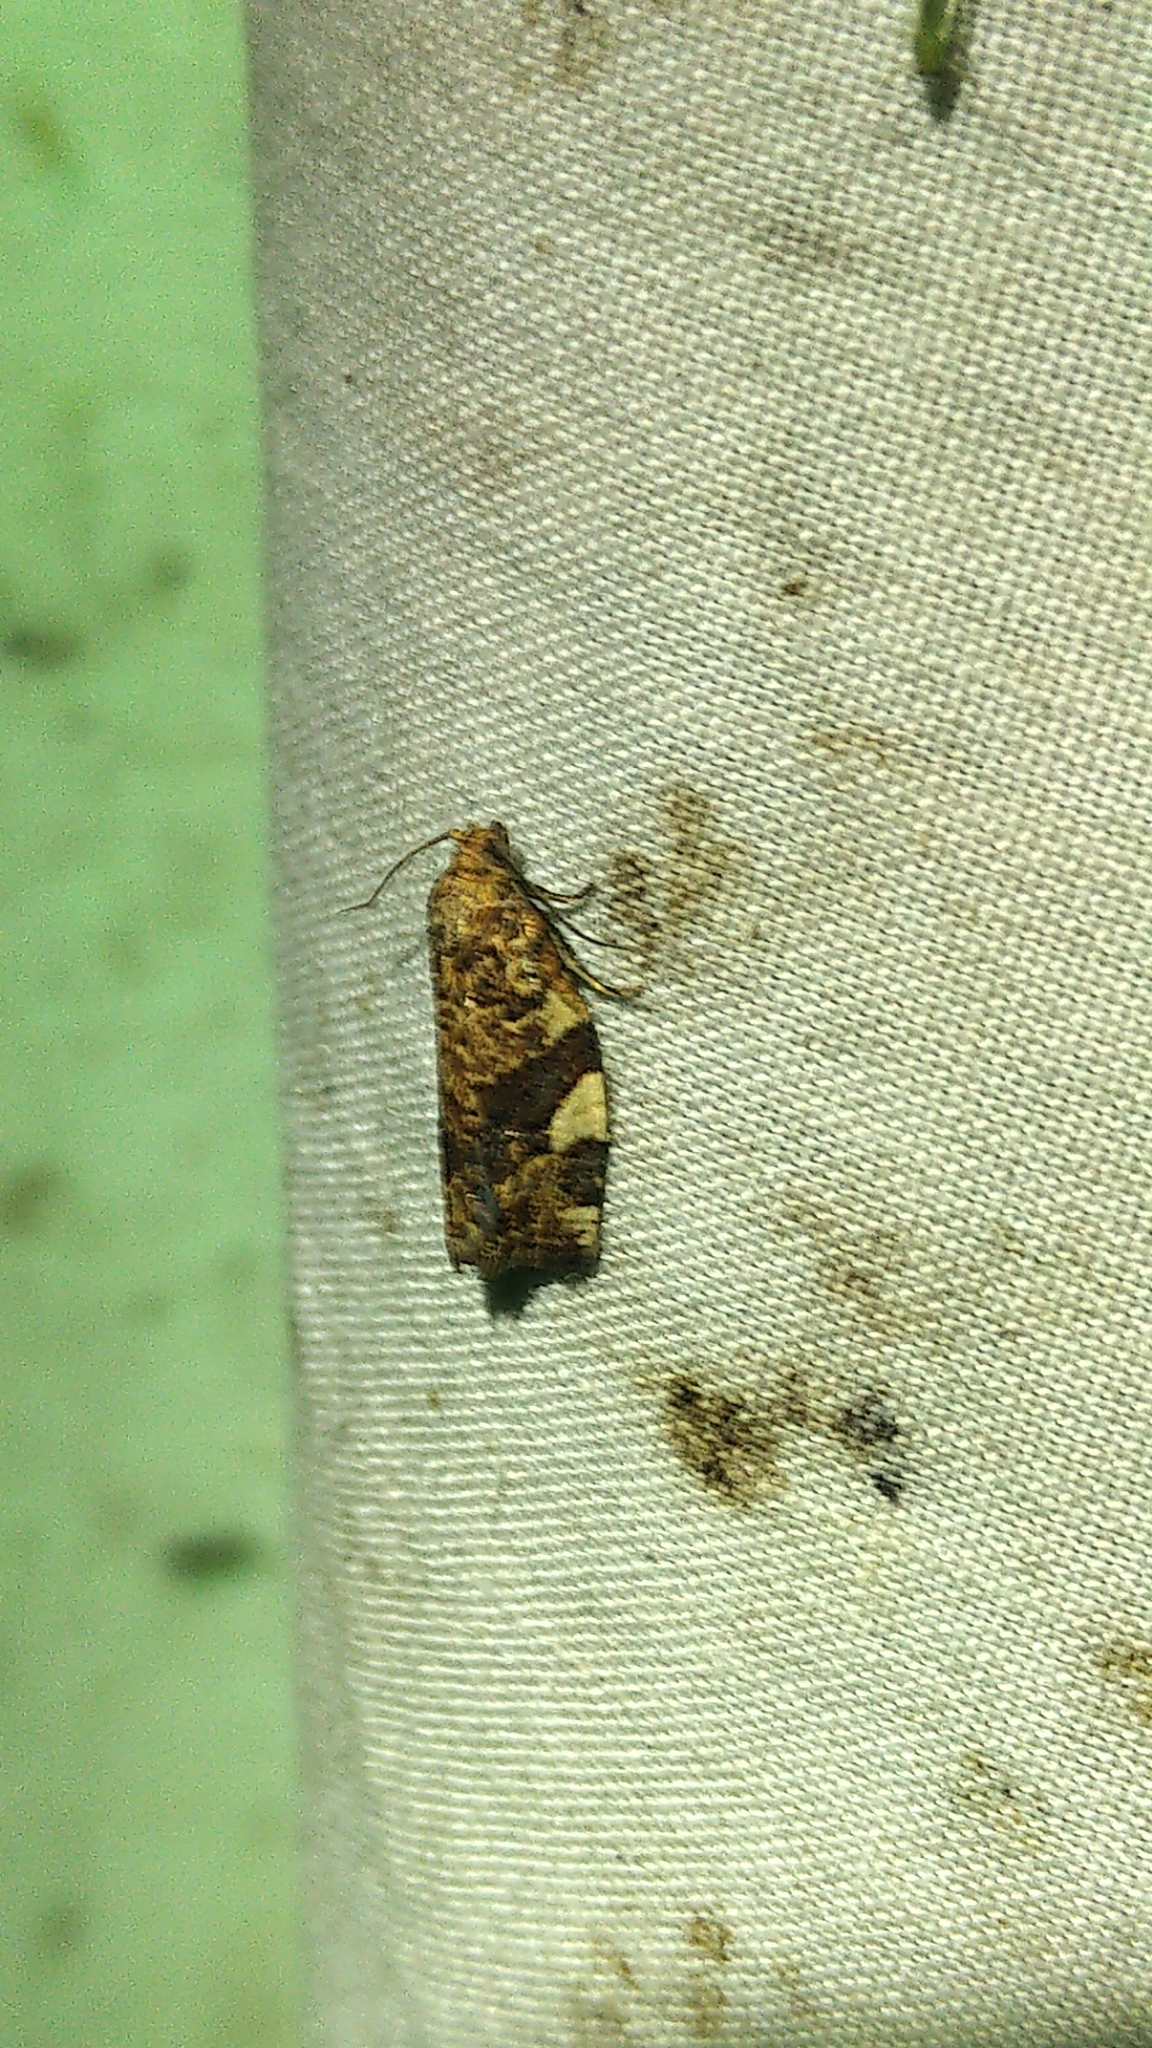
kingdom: Animalia
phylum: Arthropoda
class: Insecta
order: Lepidoptera
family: Tortricidae
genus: Archips
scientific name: Archips argyrospila
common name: Fruit-tree leafroller moth
